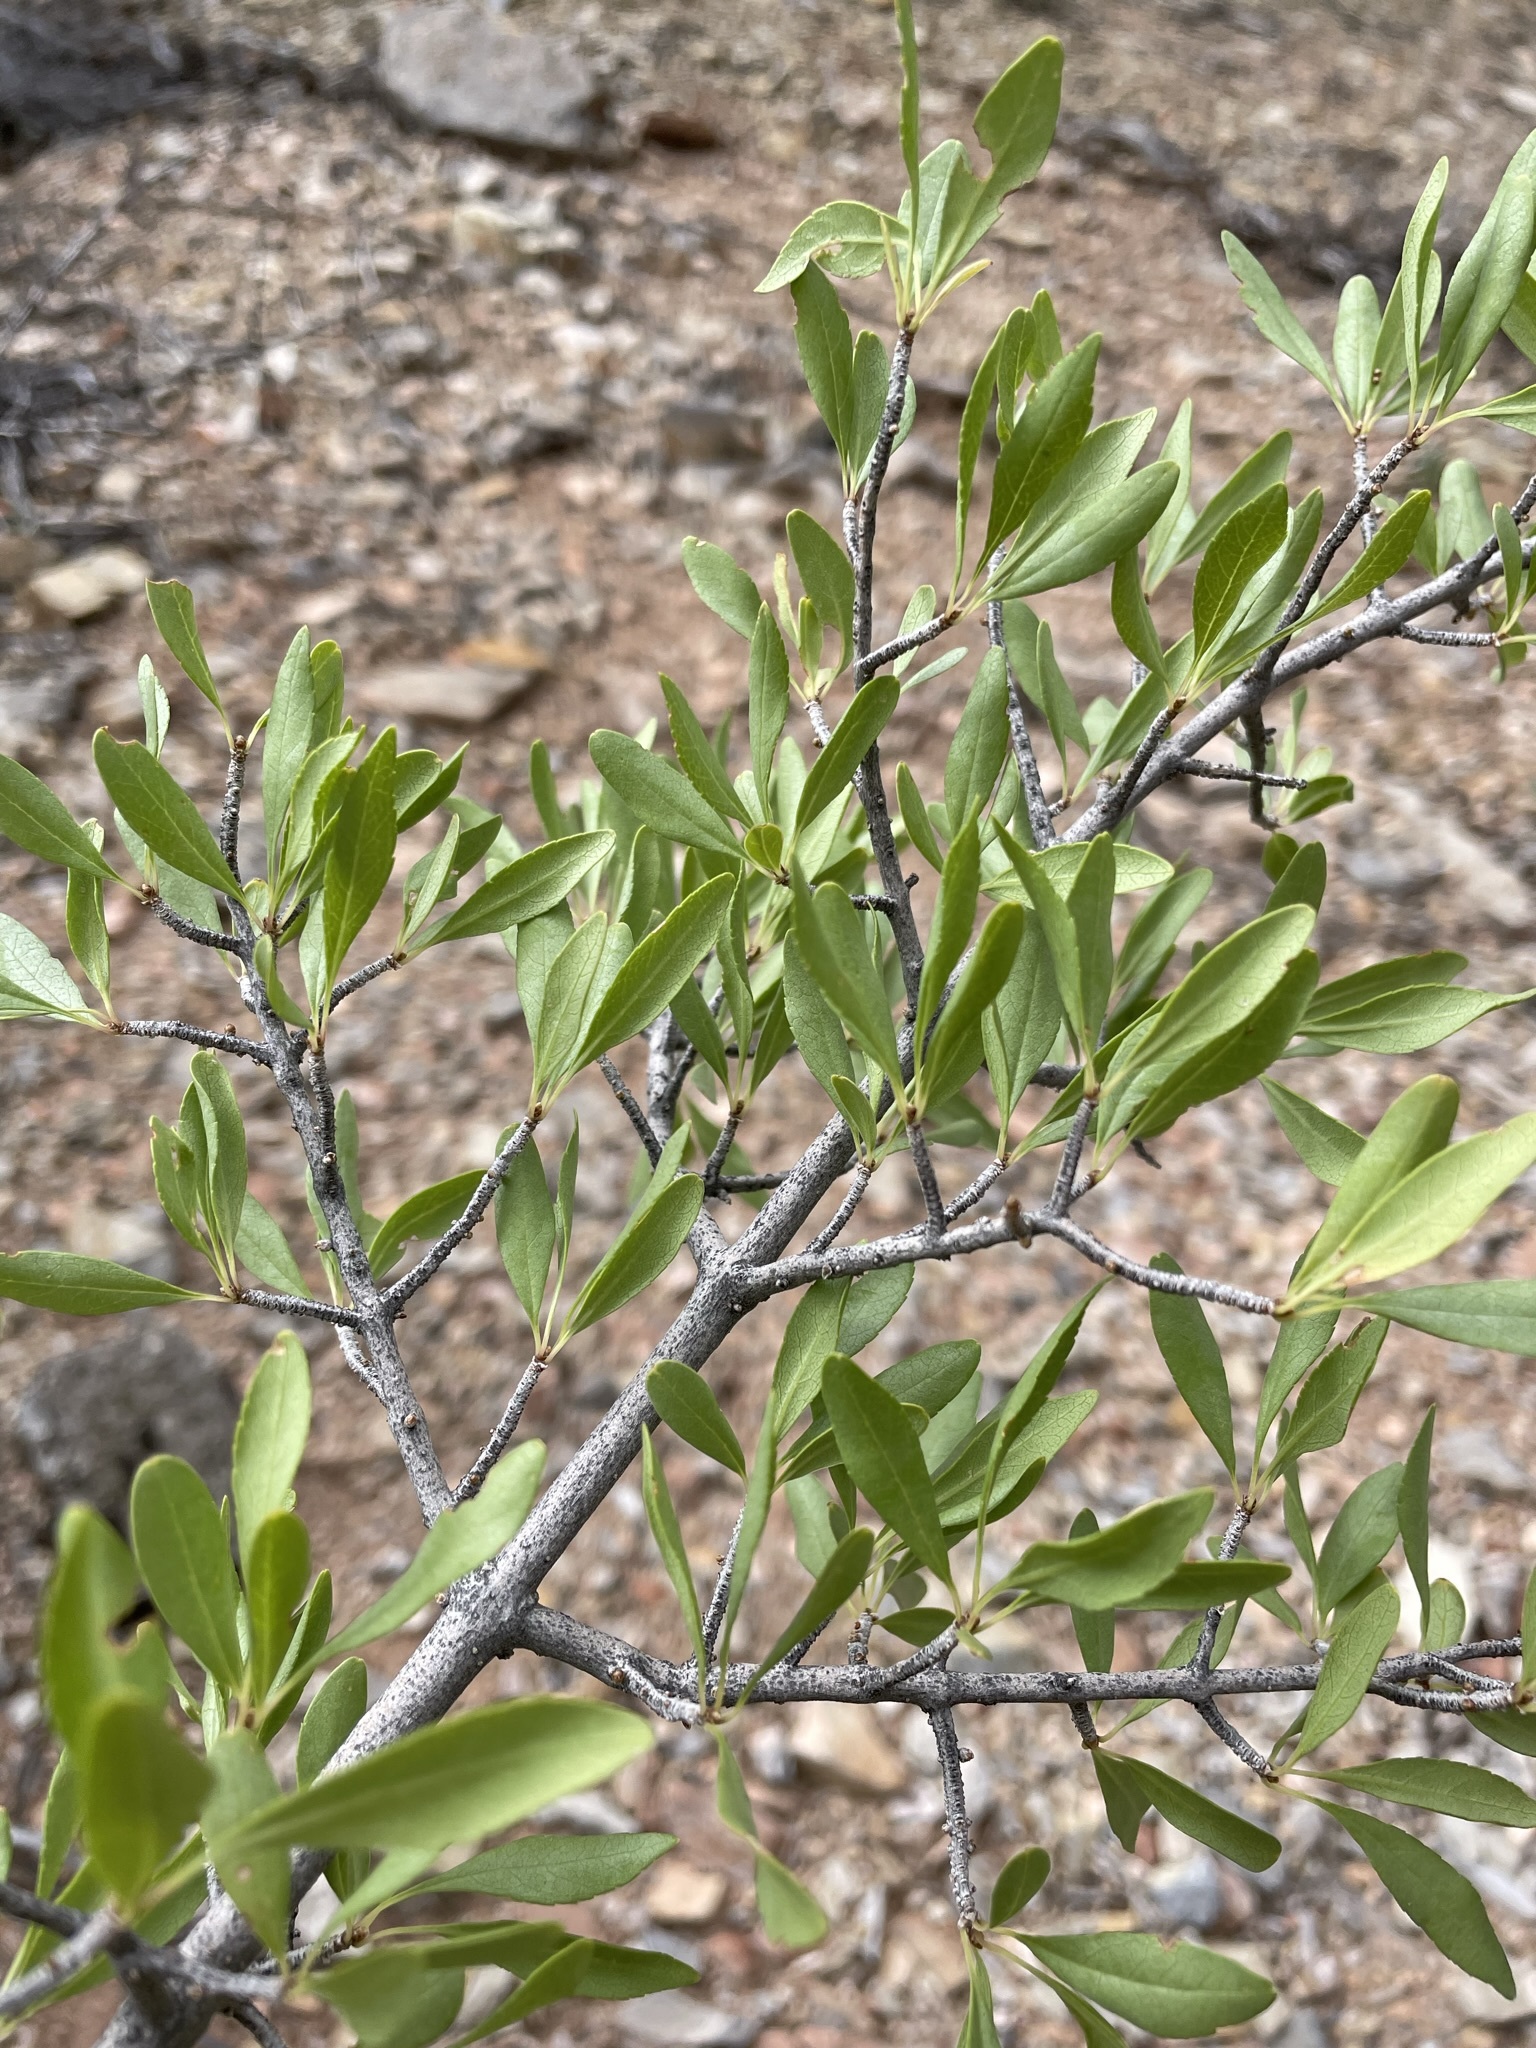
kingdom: Plantae
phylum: Tracheophyta
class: Magnoliopsida
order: Lamiales
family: Oleaceae
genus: Forestiera
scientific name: Forestiera pubescens
